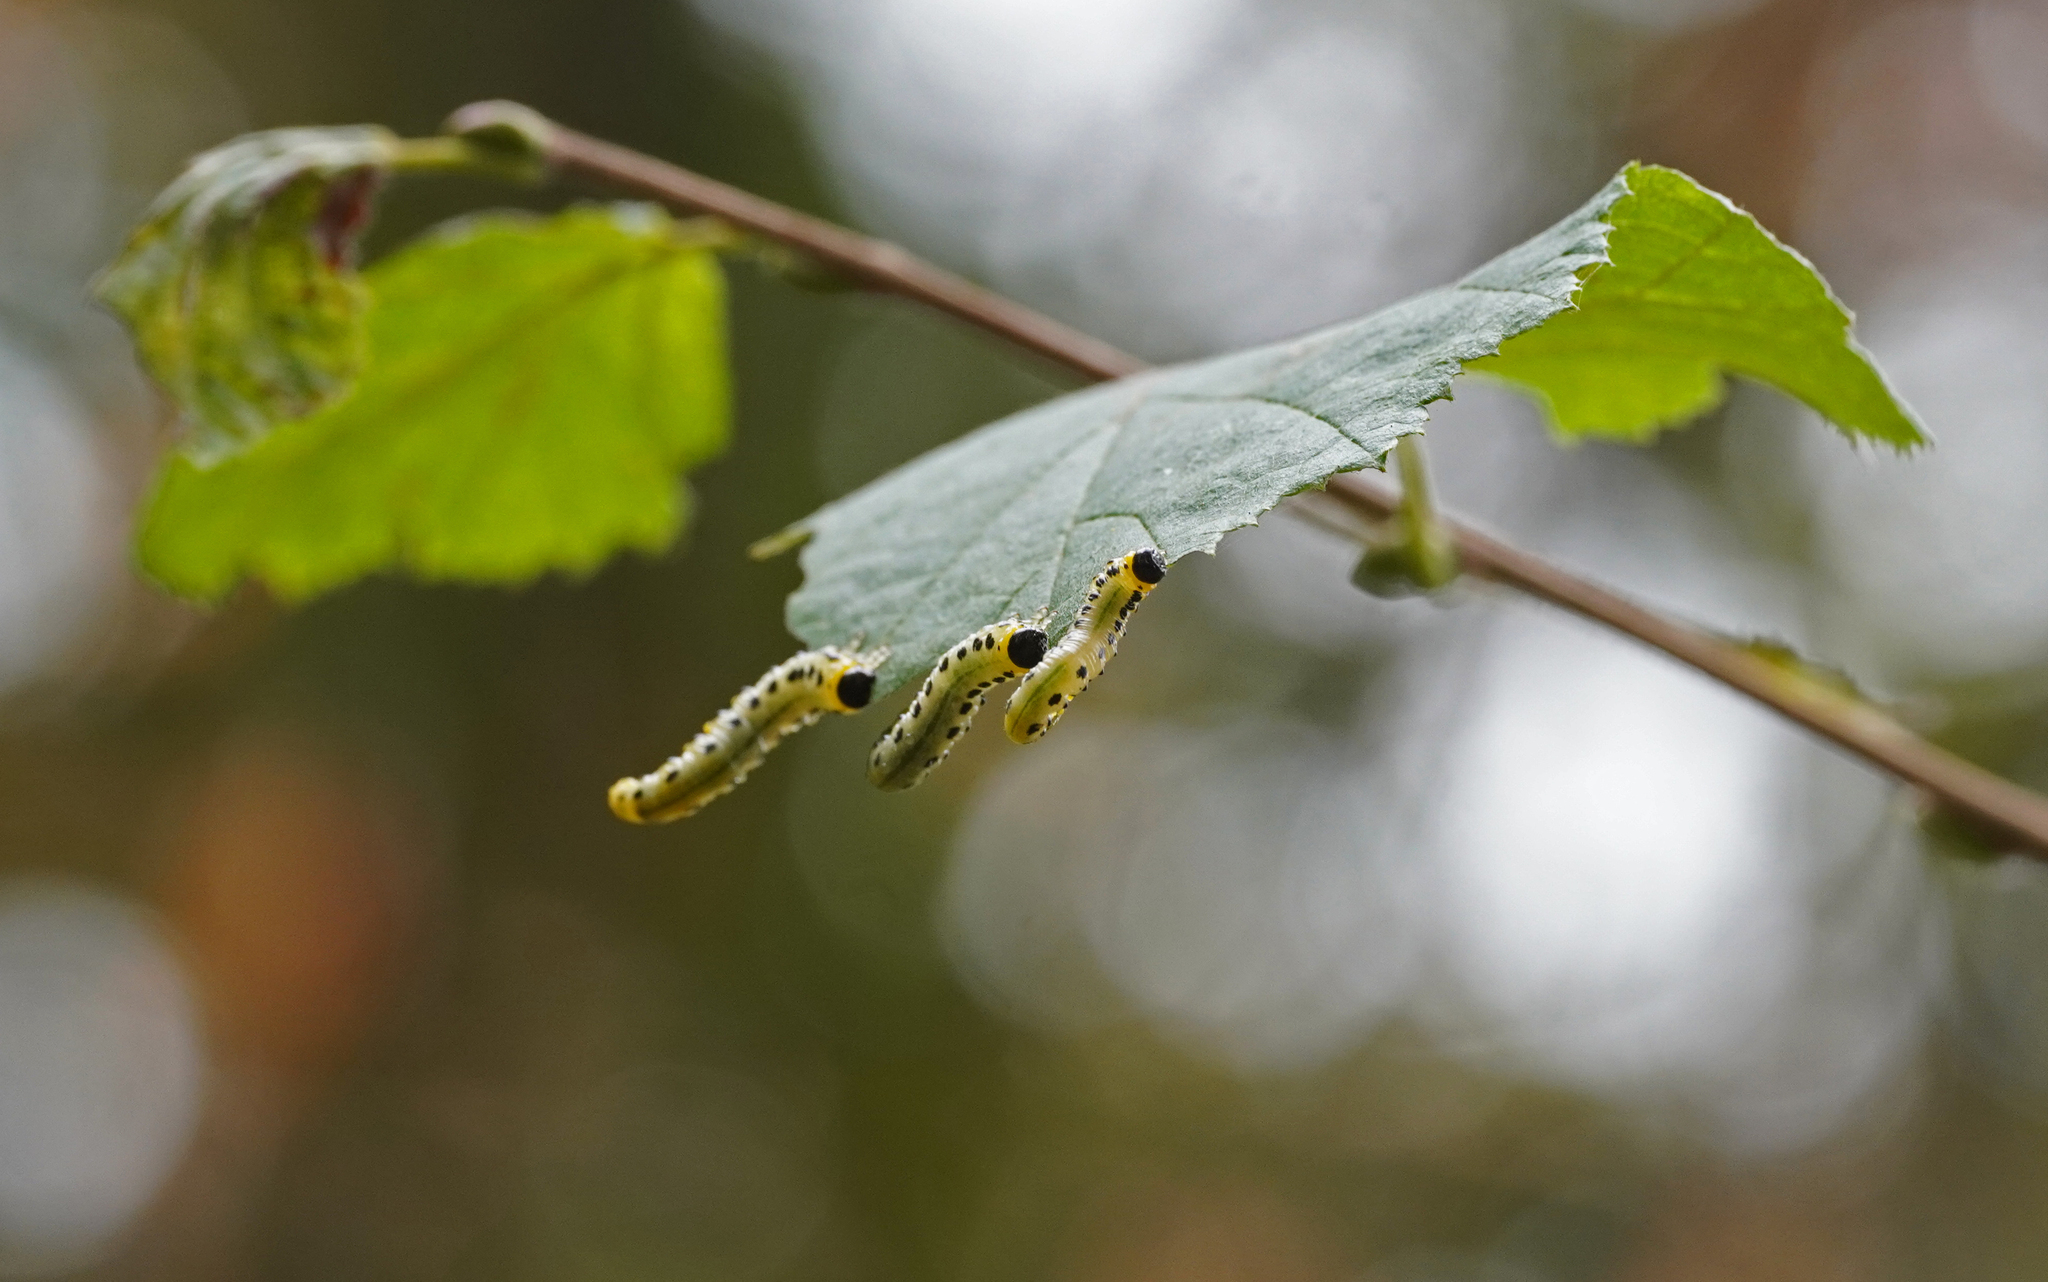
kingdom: Animalia
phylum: Arthropoda
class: Insecta
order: Hymenoptera
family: Tenthredinidae
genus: Craesus
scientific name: Craesus septentrionalis
